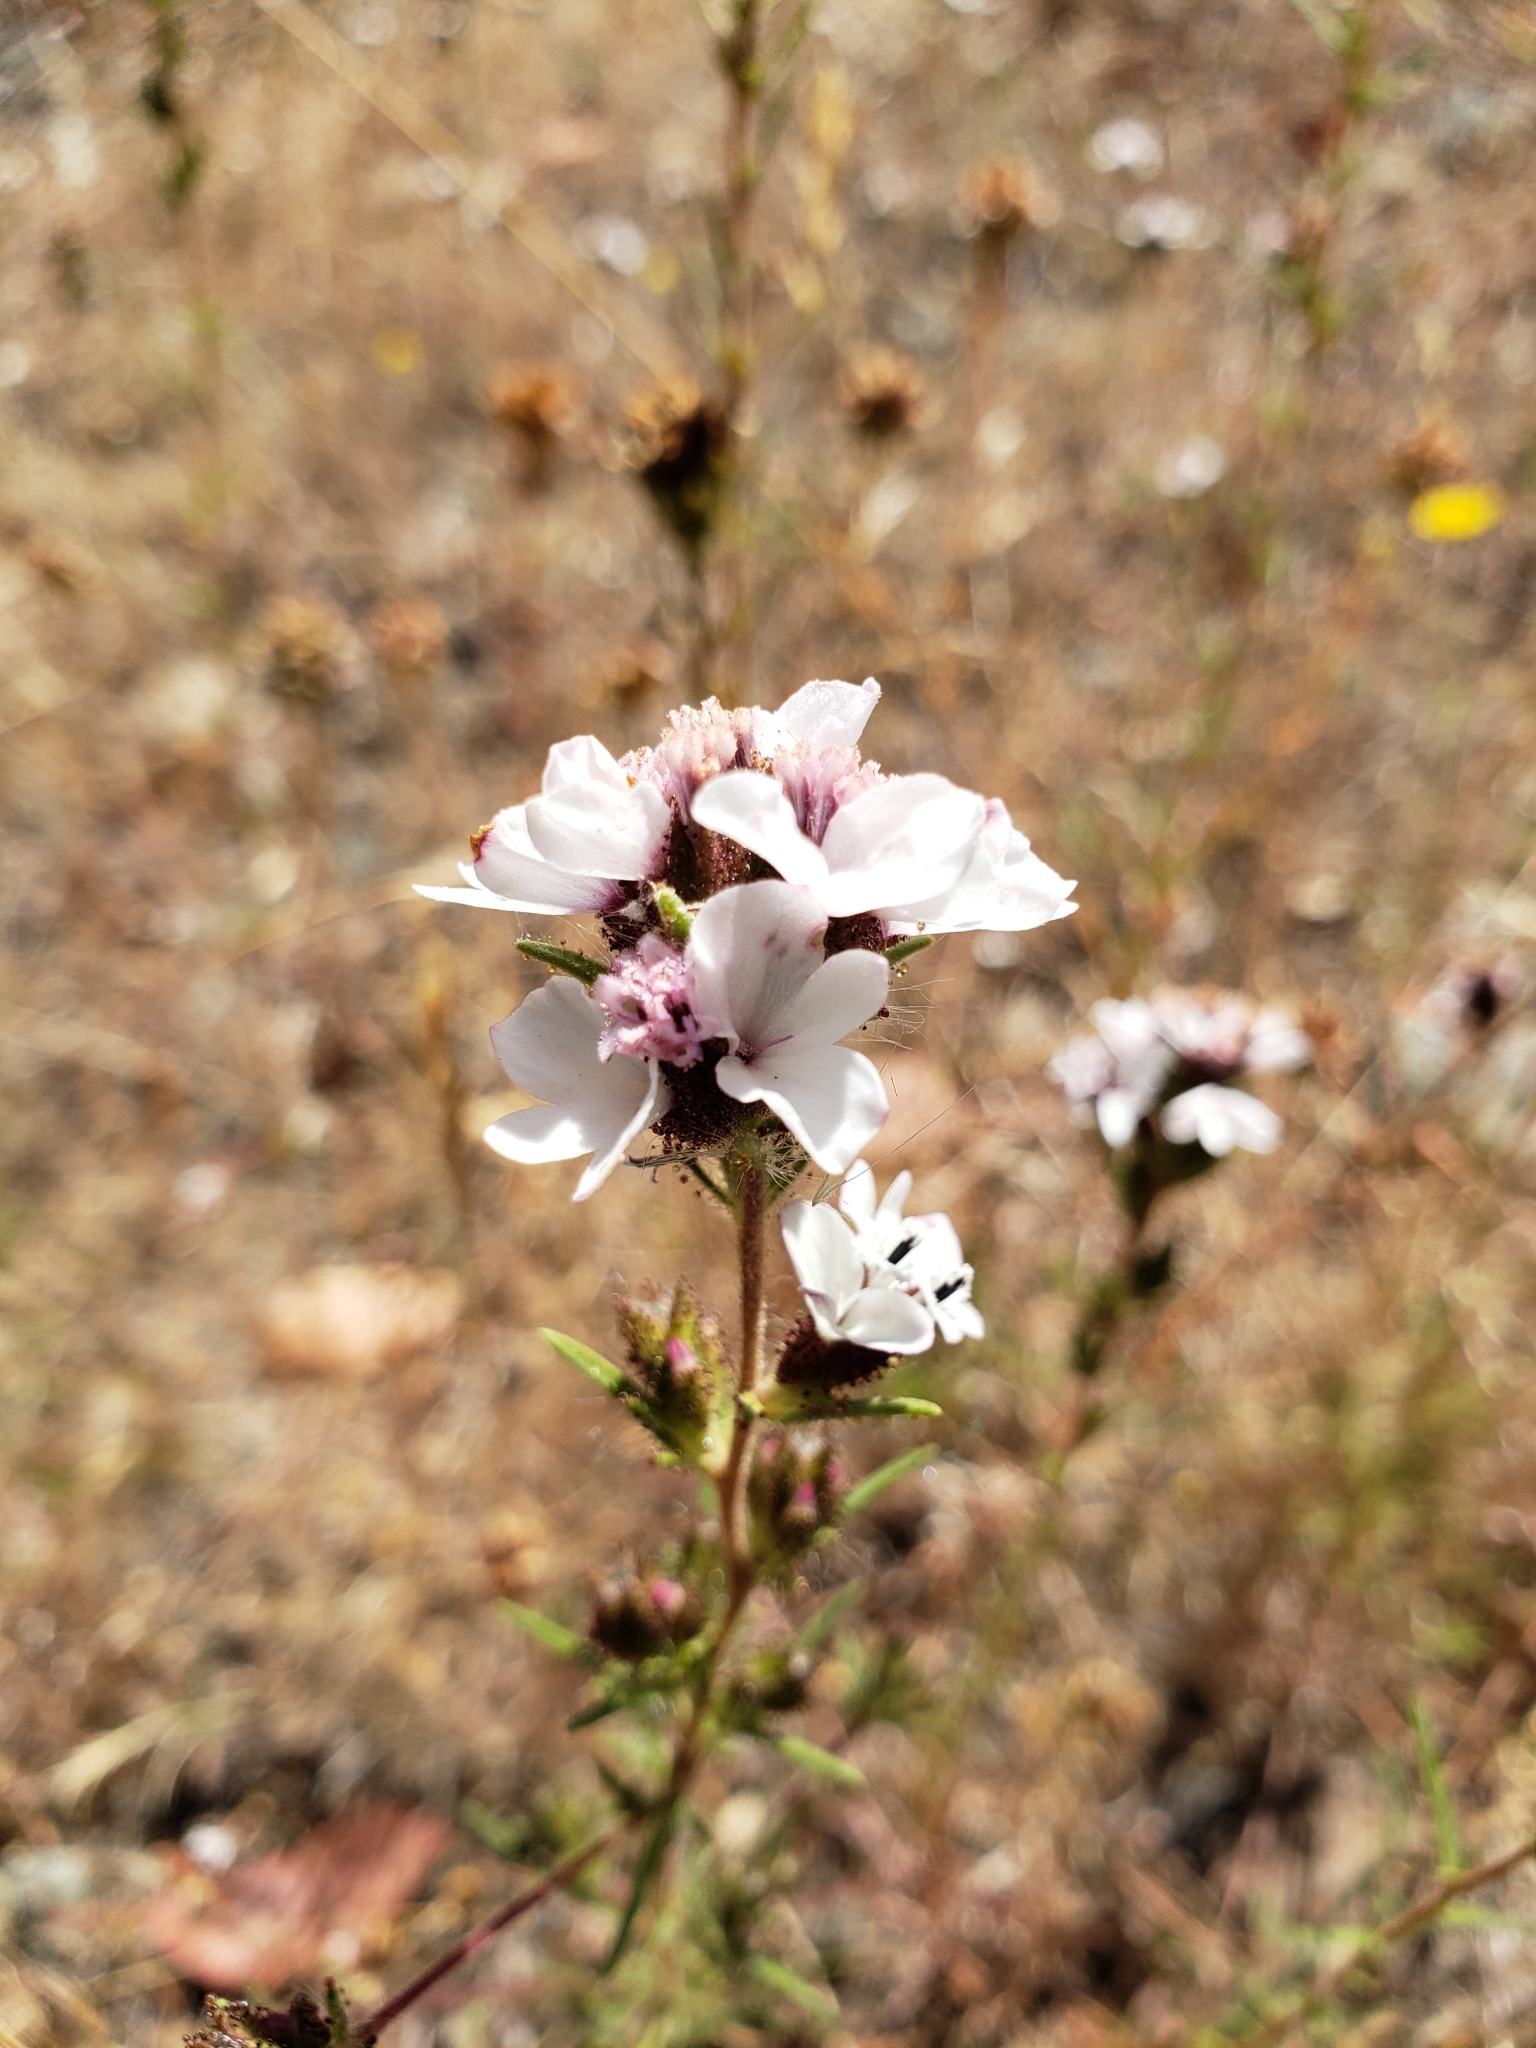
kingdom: Plantae
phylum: Tracheophyta
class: Magnoliopsida
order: Asterales
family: Asteraceae
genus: Calycadenia
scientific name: Calycadenia multiglandulosa
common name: Sticky calycadenia
